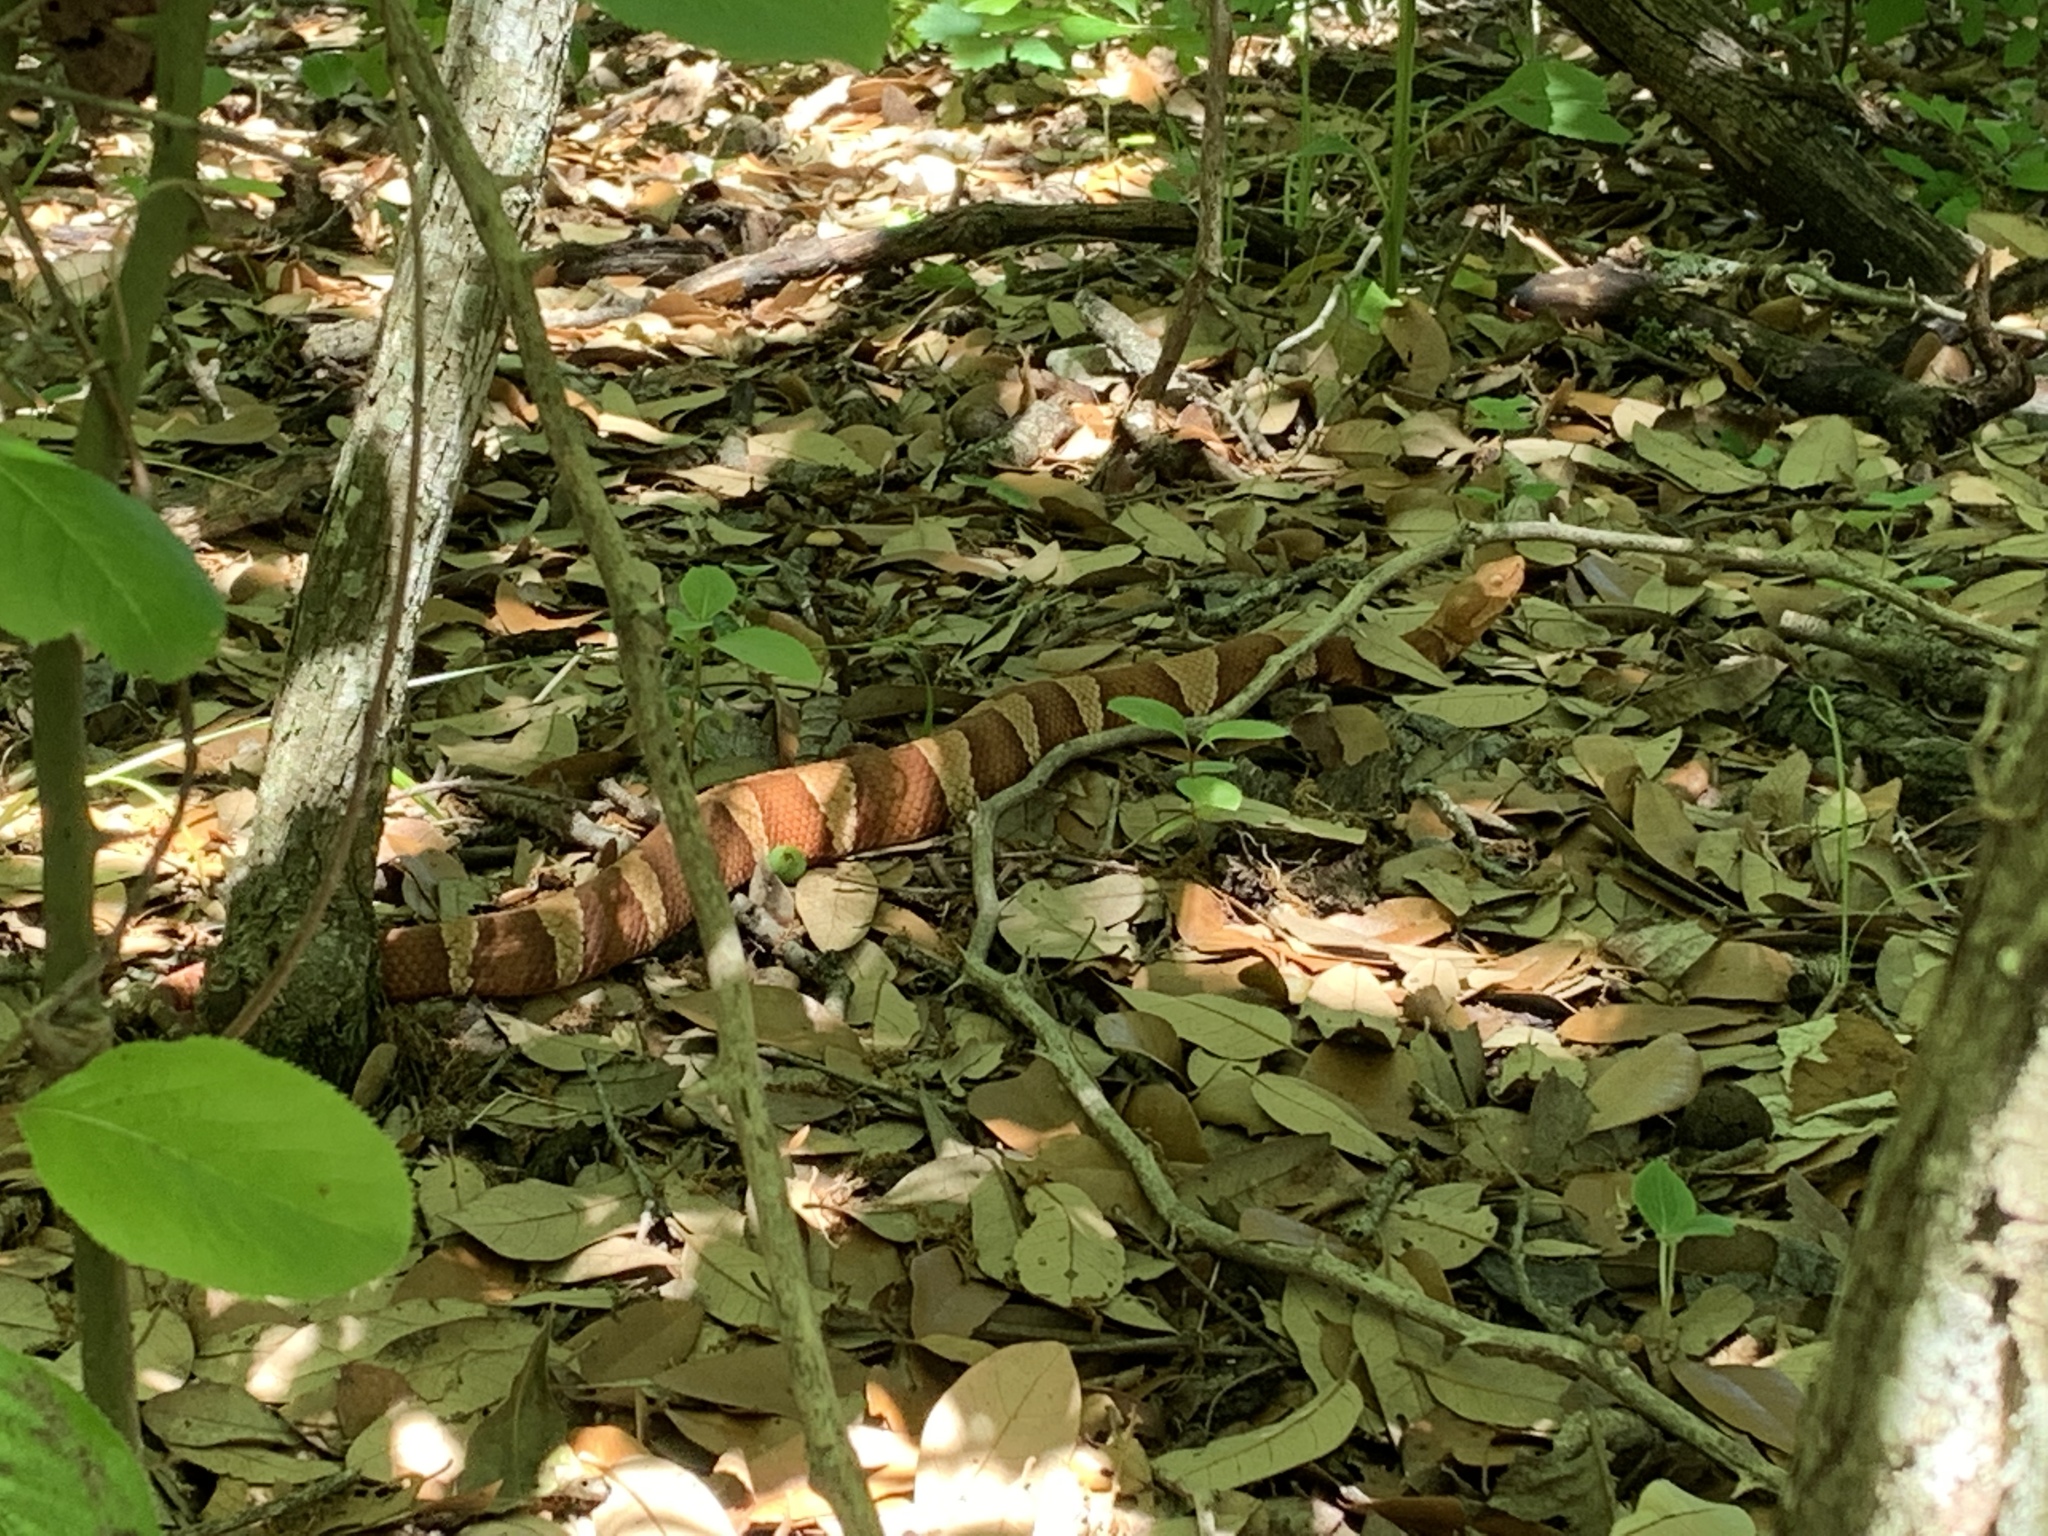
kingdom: Animalia
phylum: Chordata
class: Squamata
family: Viperidae
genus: Agkistrodon
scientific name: Agkistrodon laticinctus
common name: Broad-banded copperhead
